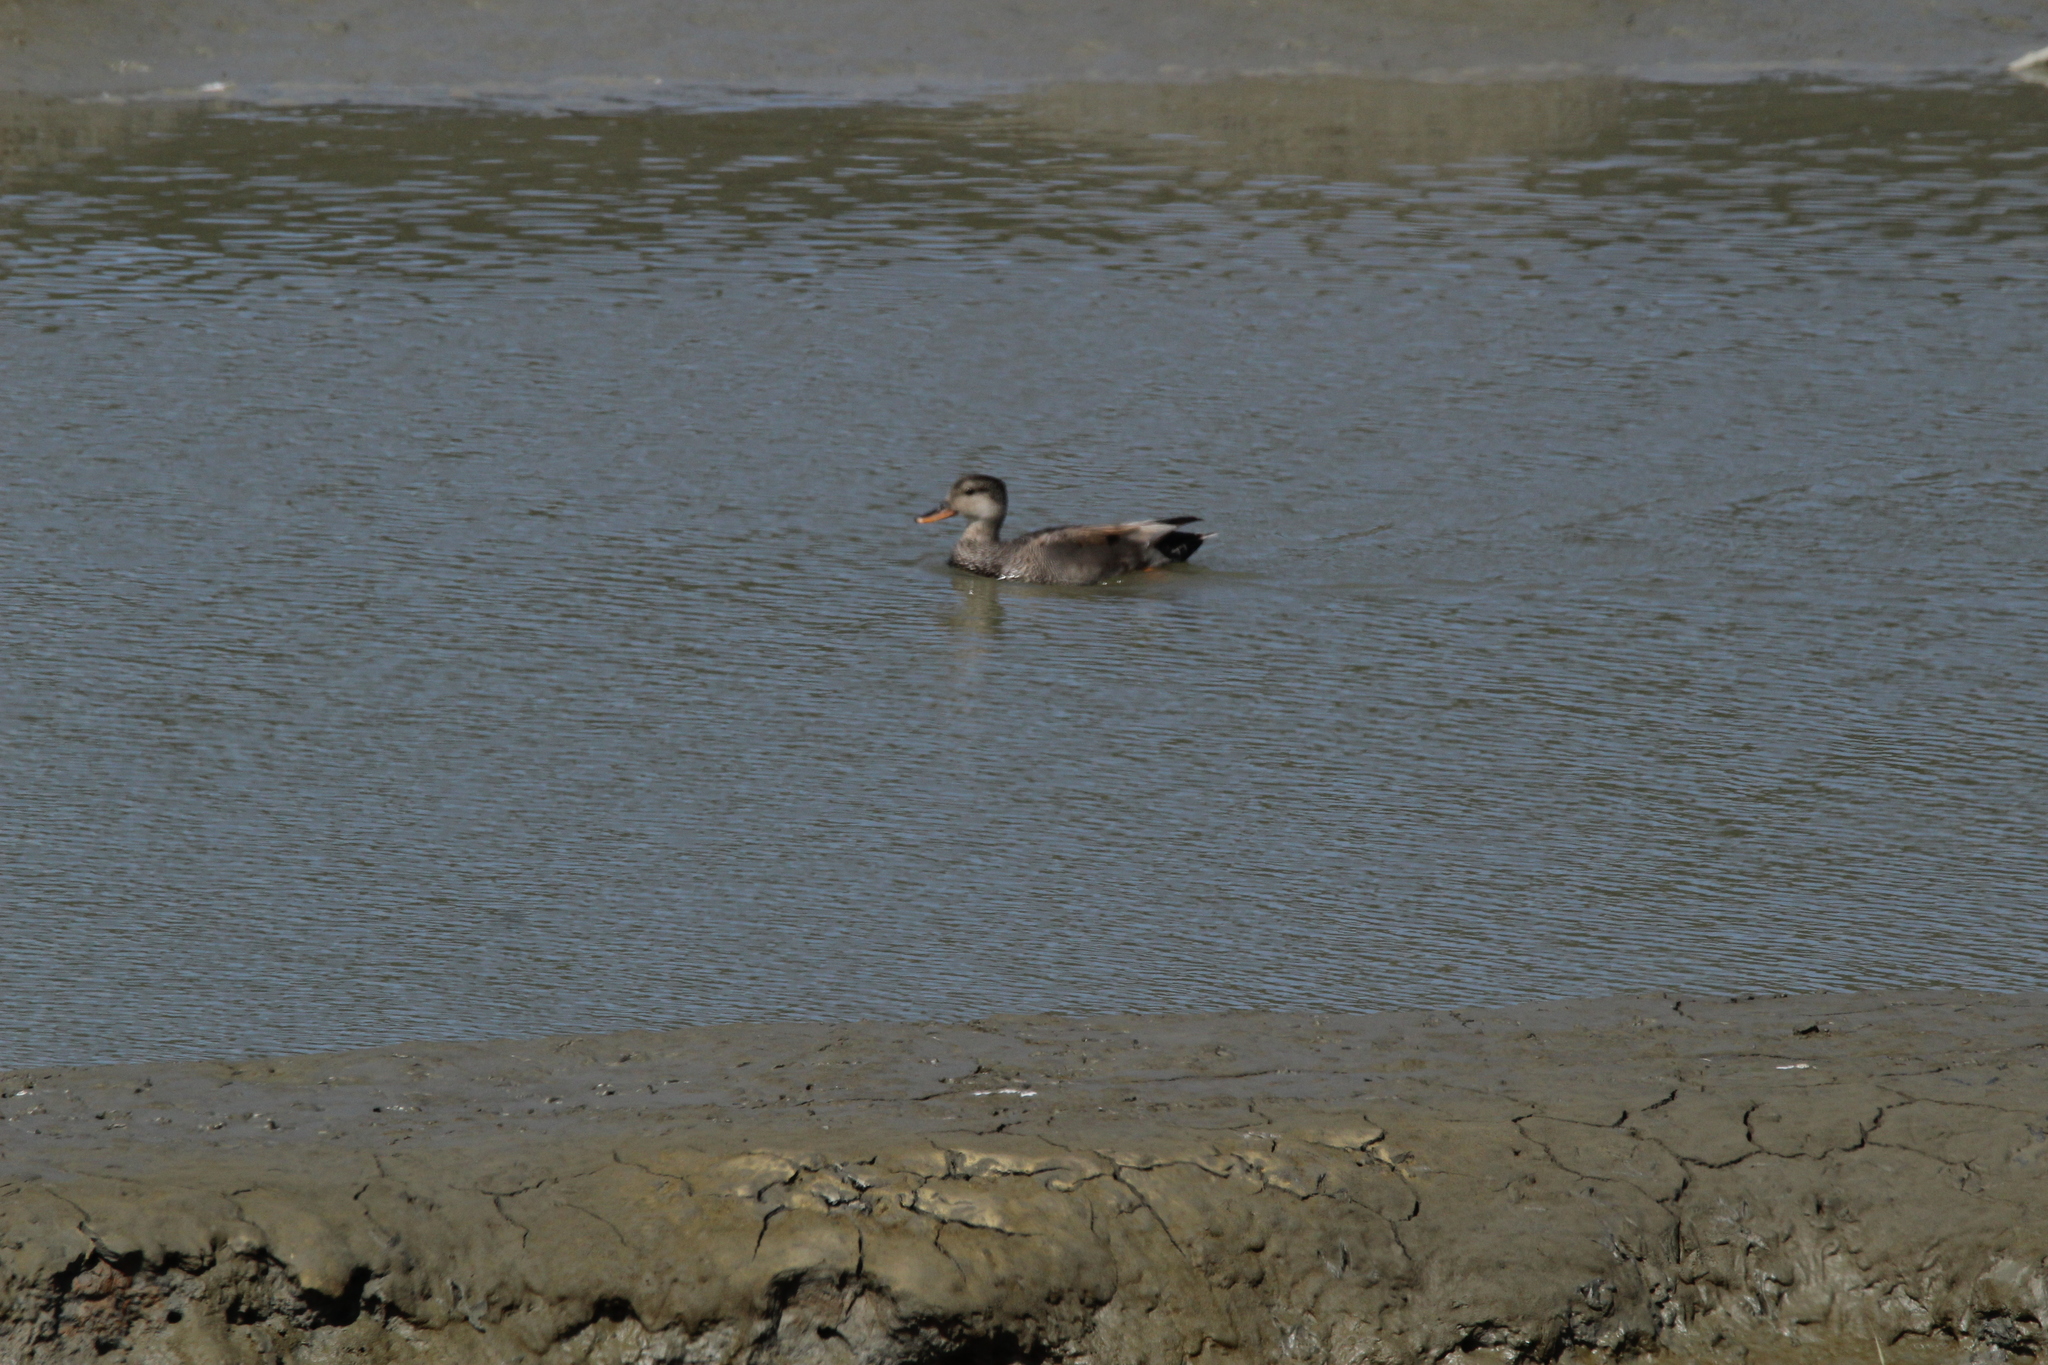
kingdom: Animalia
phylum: Chordata
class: Aves
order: Anseriformes
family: Anatidae
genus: Mareca
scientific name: Mareca strepera
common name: Gadwall
